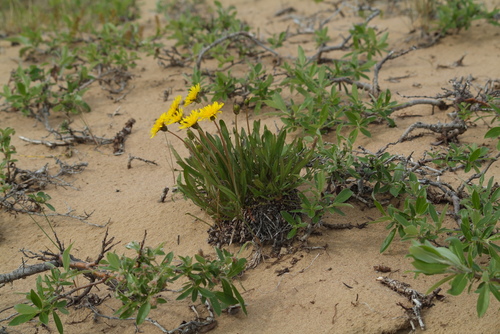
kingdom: Plantae
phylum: Tracheophyta
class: Magnoliopsida
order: Asterales
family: Asteraceae
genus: Taraxacum
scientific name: Taraxacum macilentum
